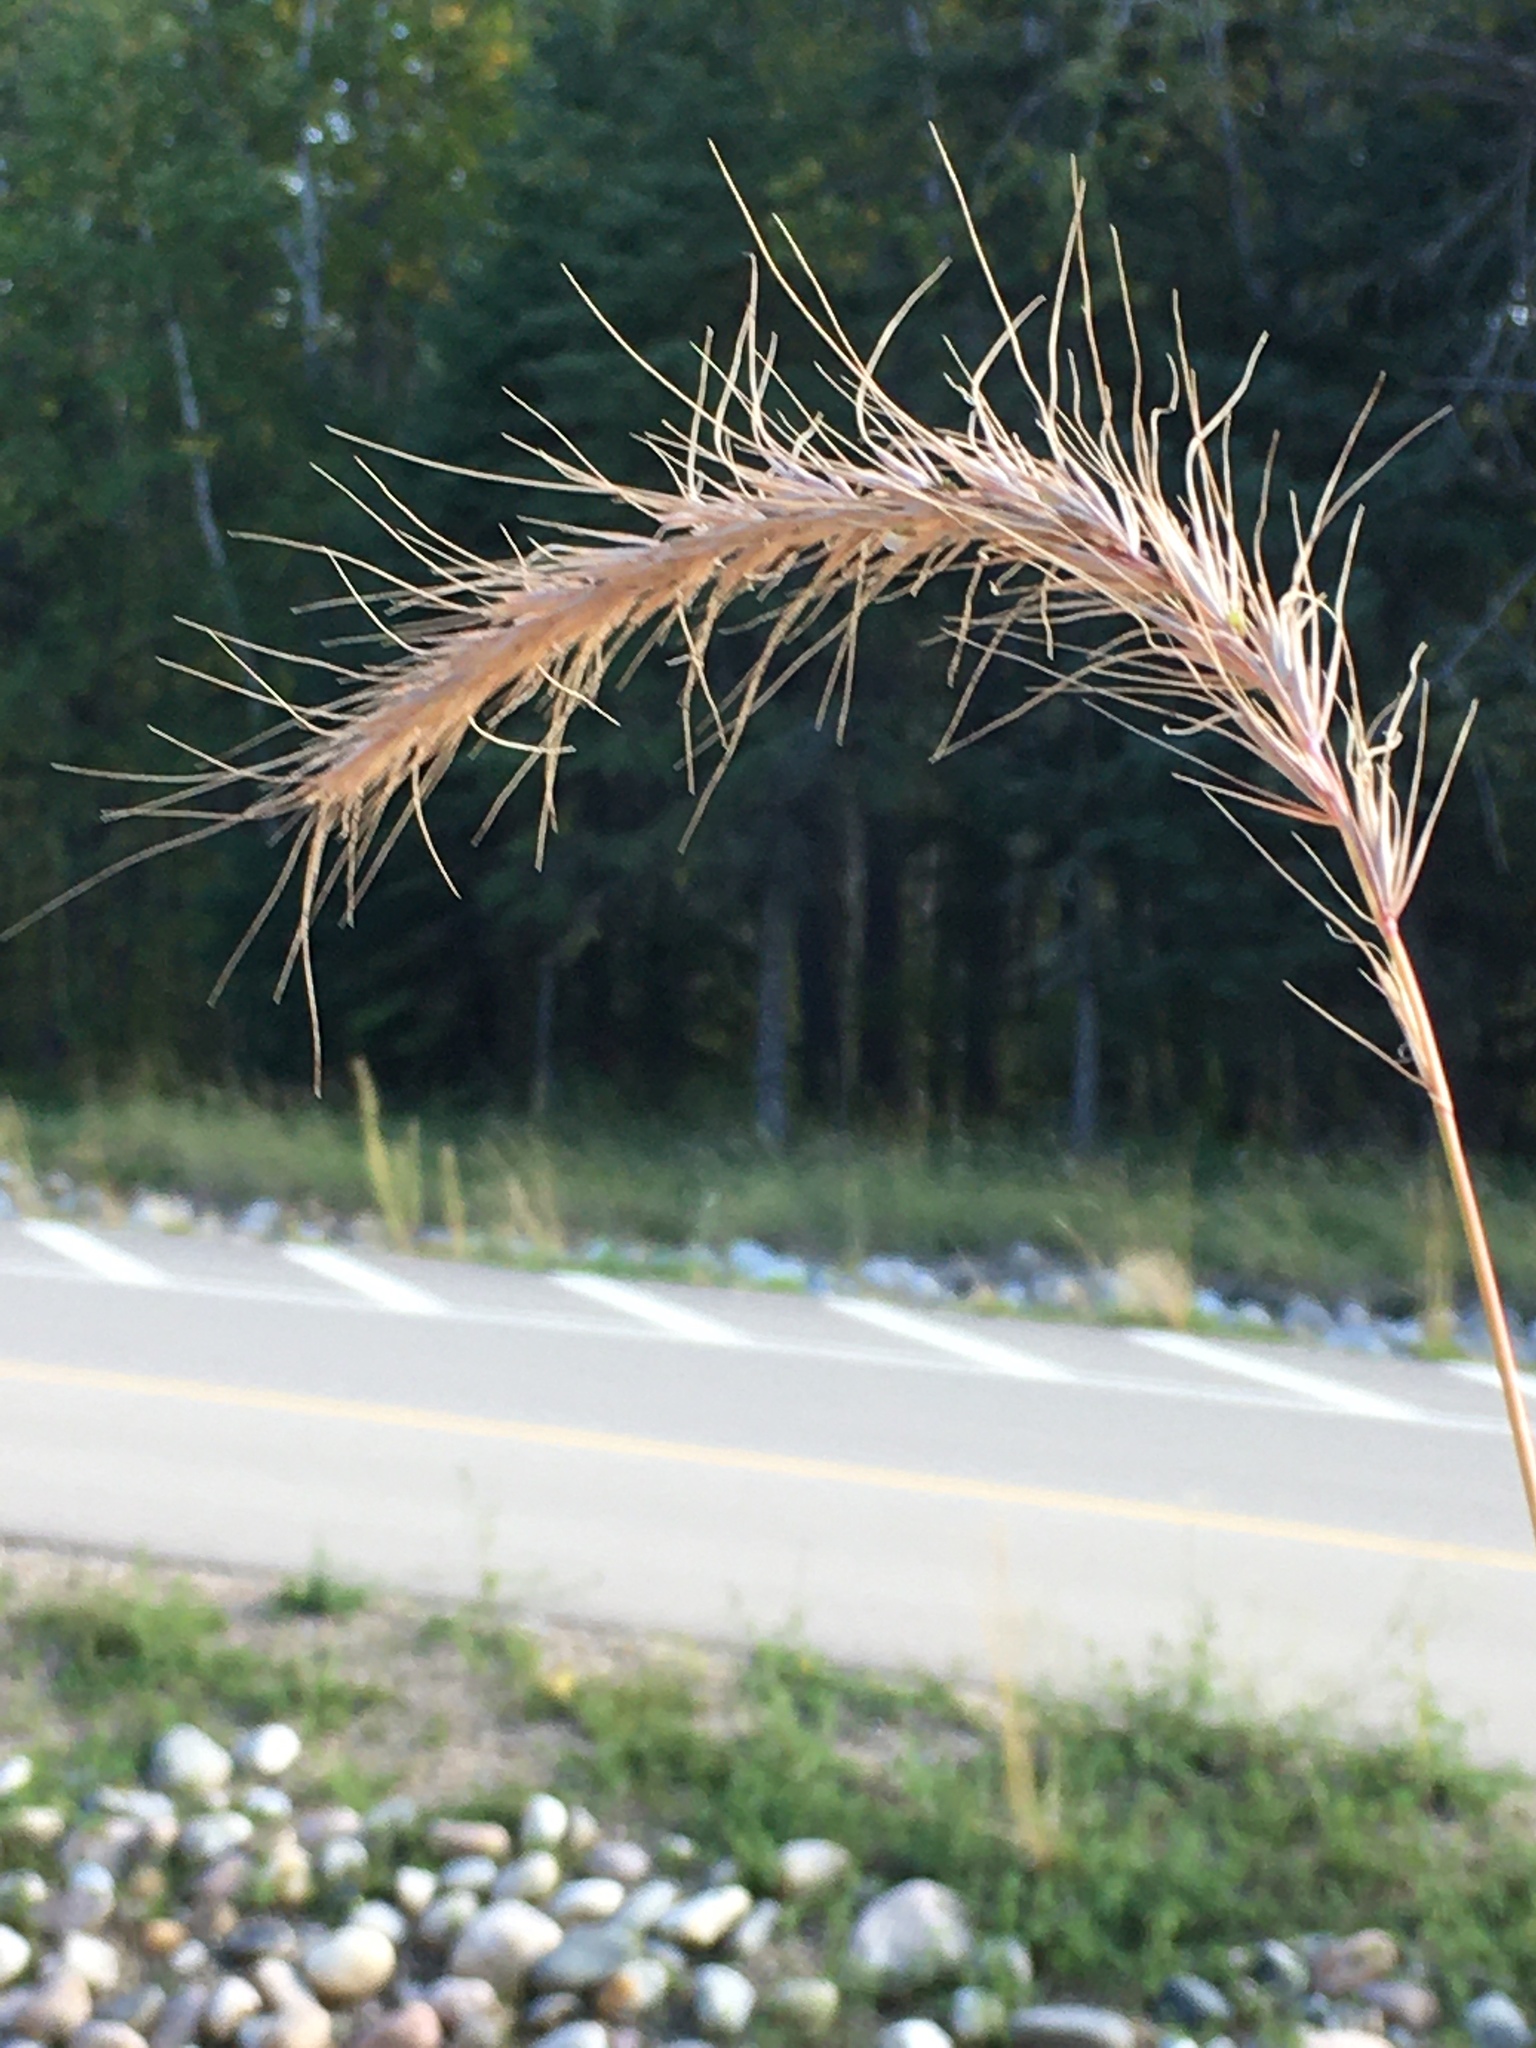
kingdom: Plantae
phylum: Tracheophyta
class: Liliopsida
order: Poales
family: Poaceae
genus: Elymus
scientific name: Elymus canadensis
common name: Canada wild rye
